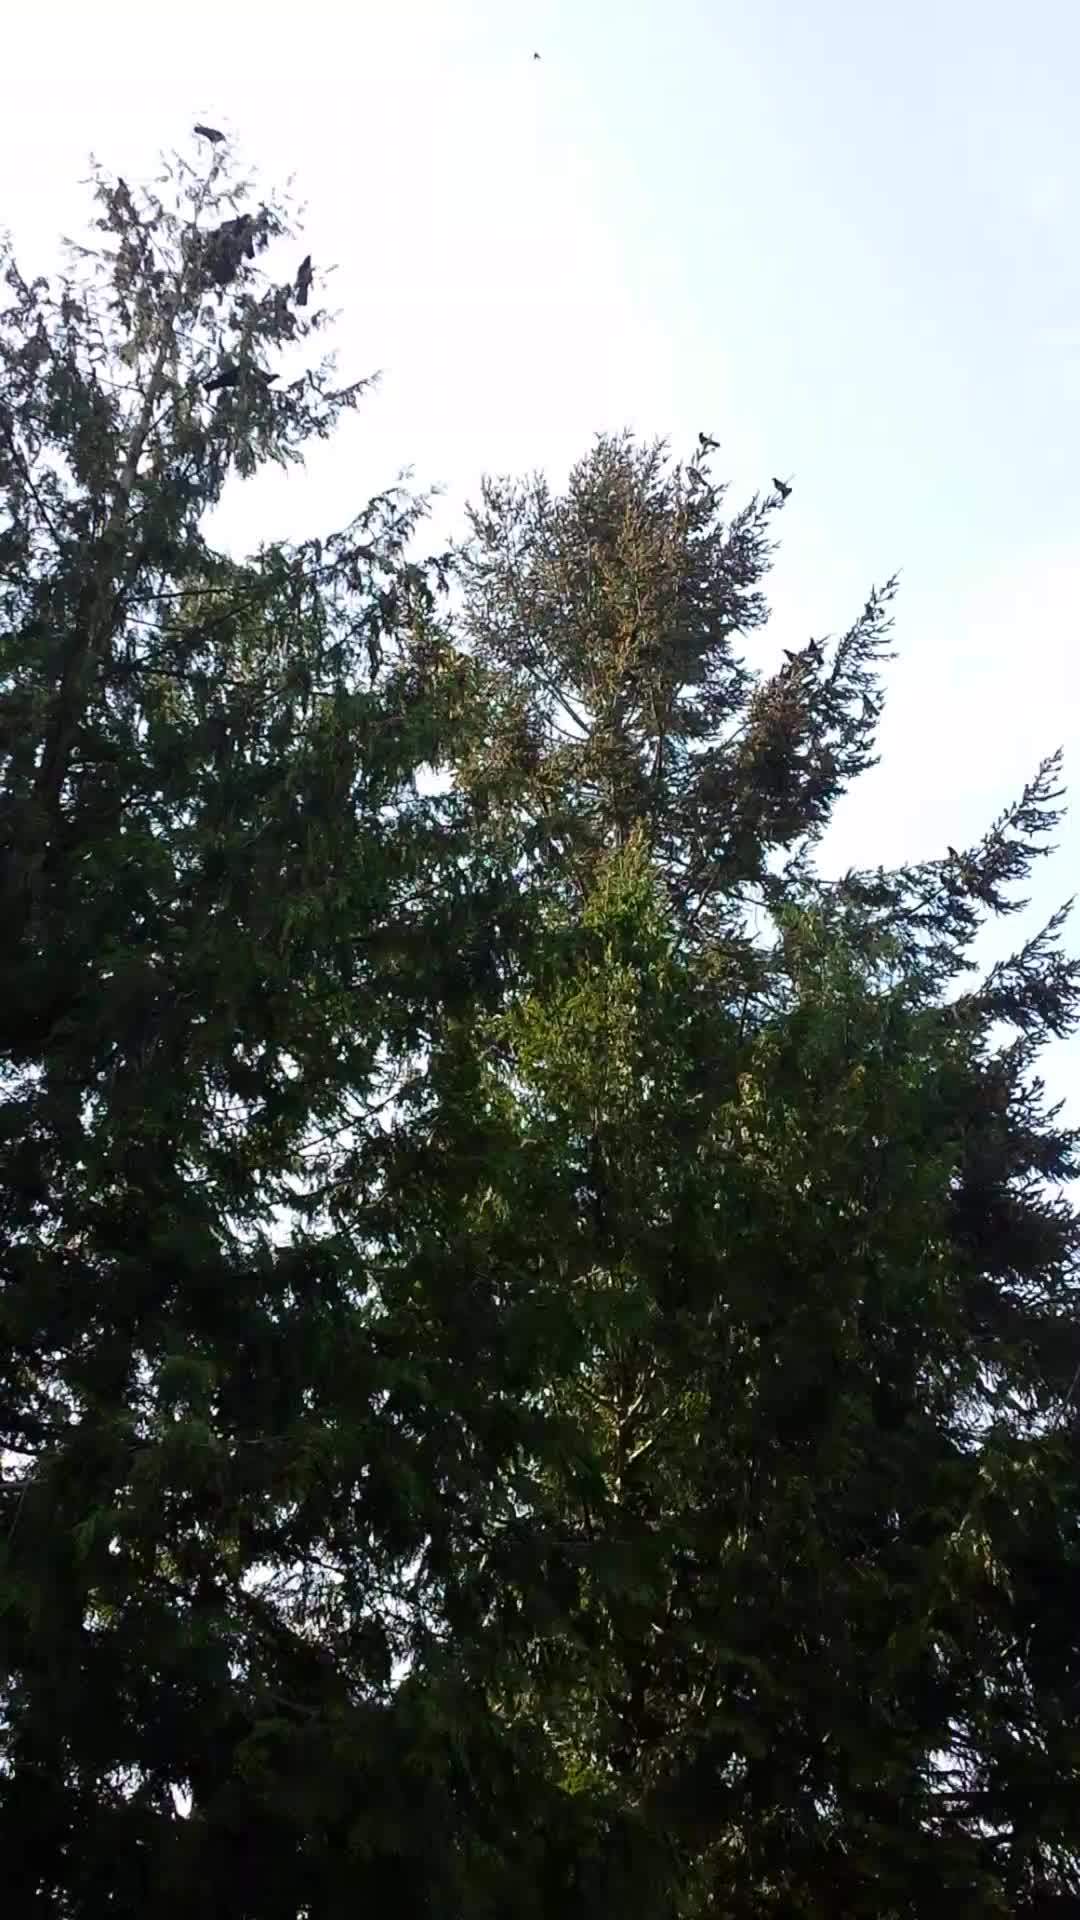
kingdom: Animalia
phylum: Chordata
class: Aves
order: Passeriformes
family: Corvidae
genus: Corvus
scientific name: Corvus brachyrhynchos
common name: American crow
